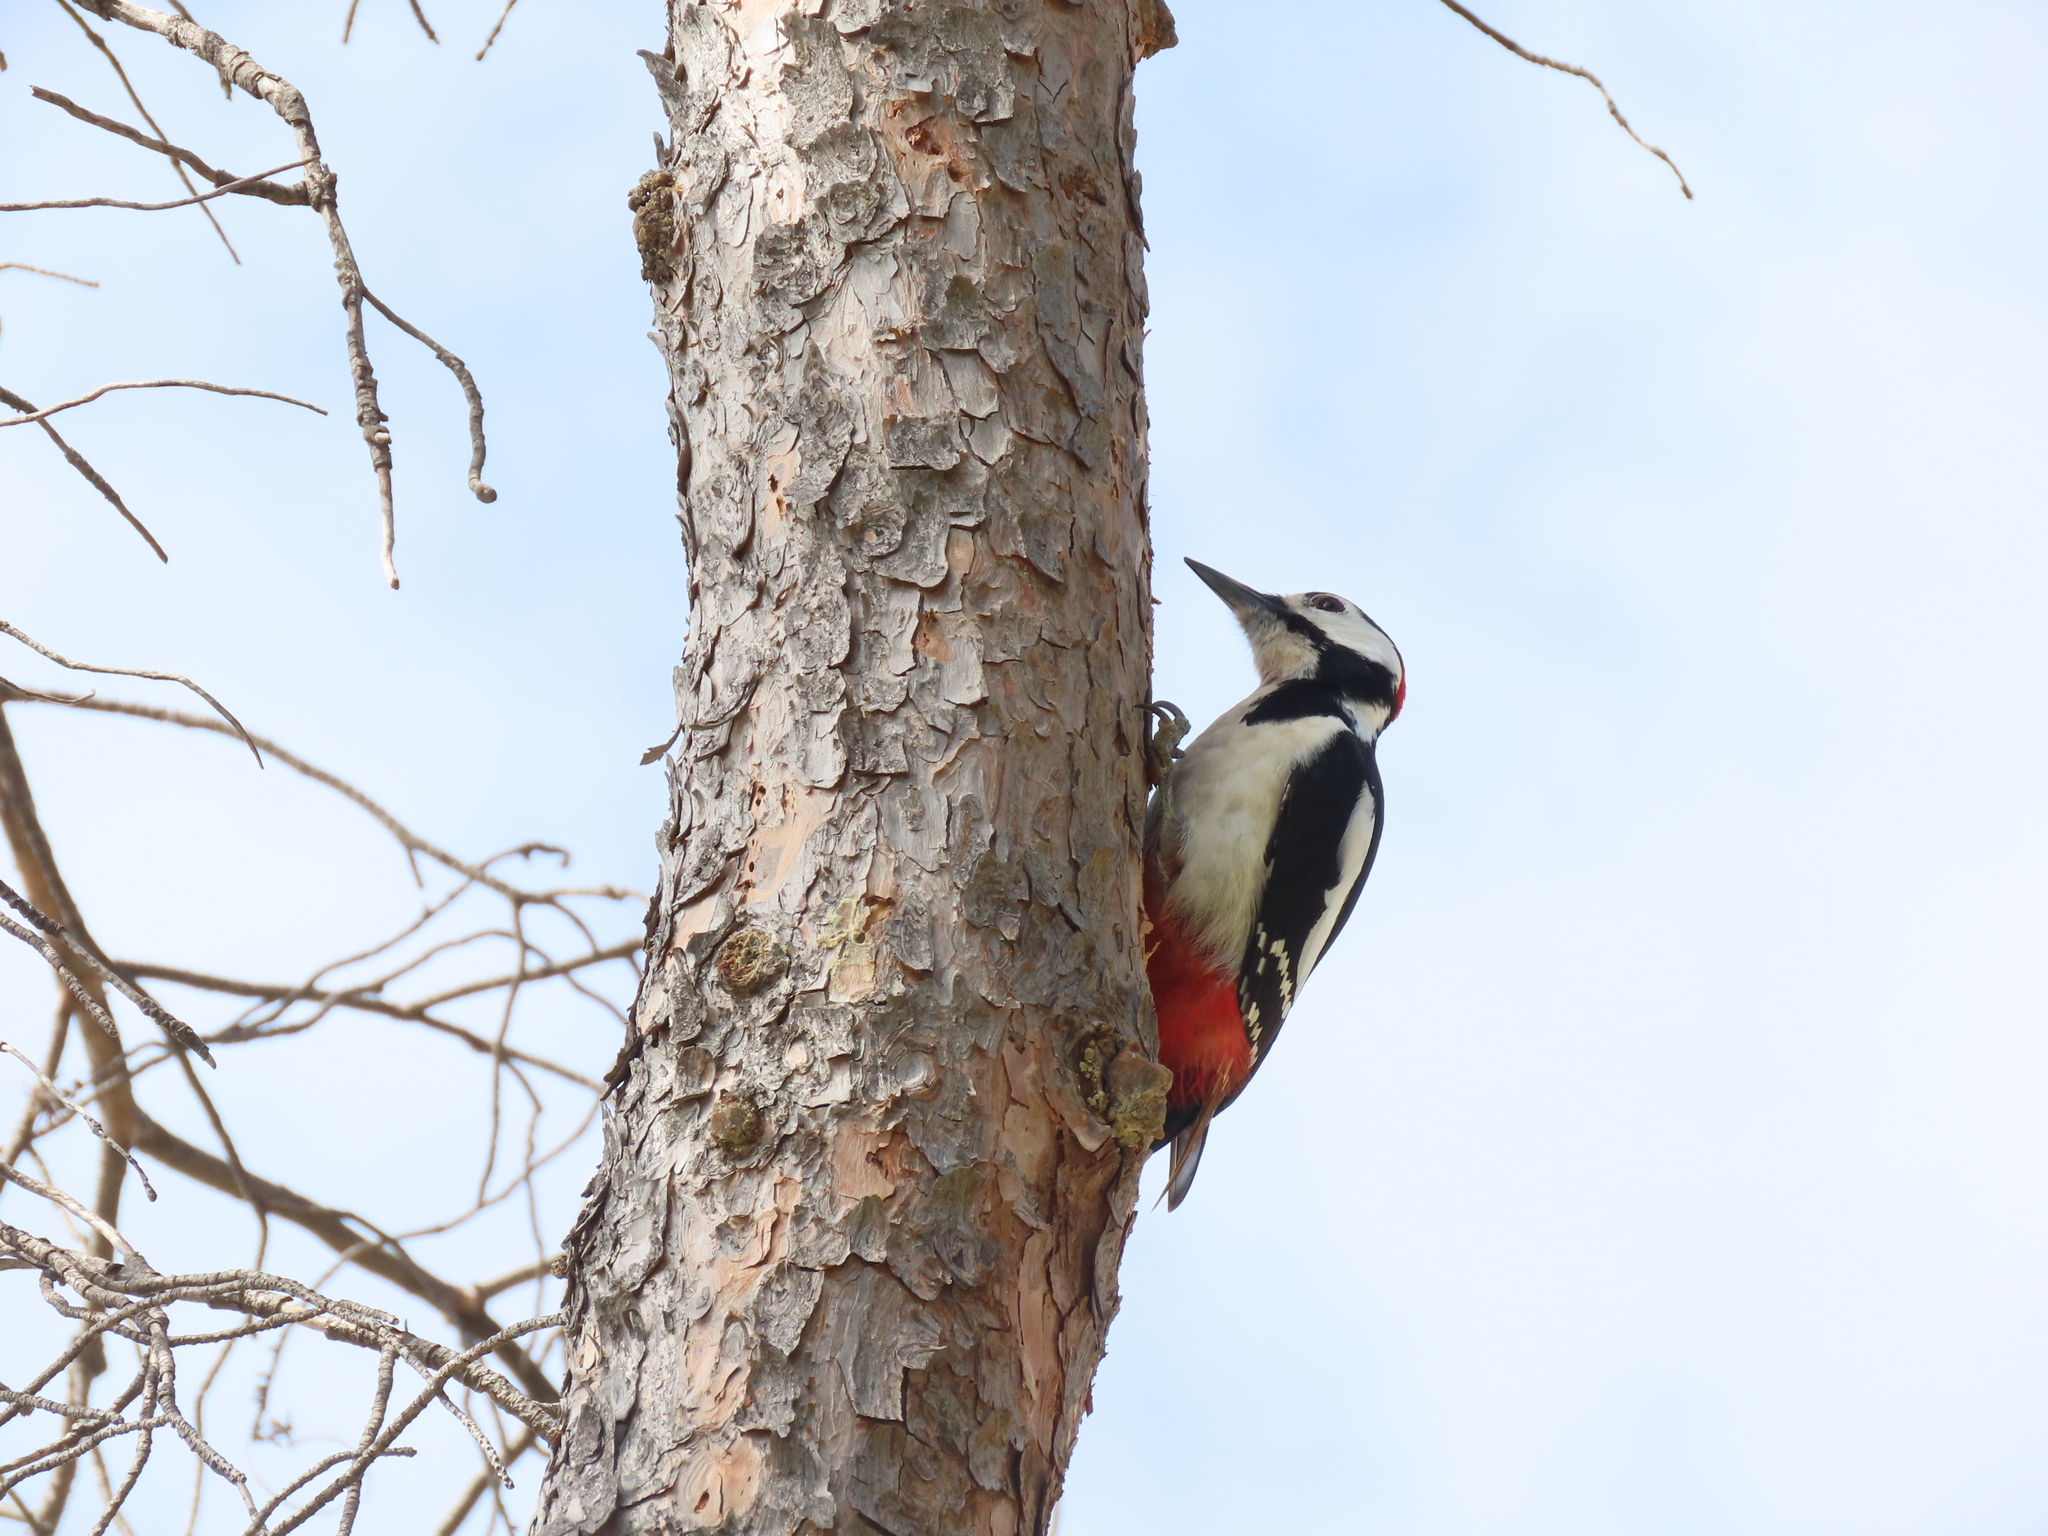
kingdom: Animalia
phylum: Chordata
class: Aves
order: Piciformes
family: Picidae
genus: Dendrocopos
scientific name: Dendrocopos major
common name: Great spotted woodpecker
